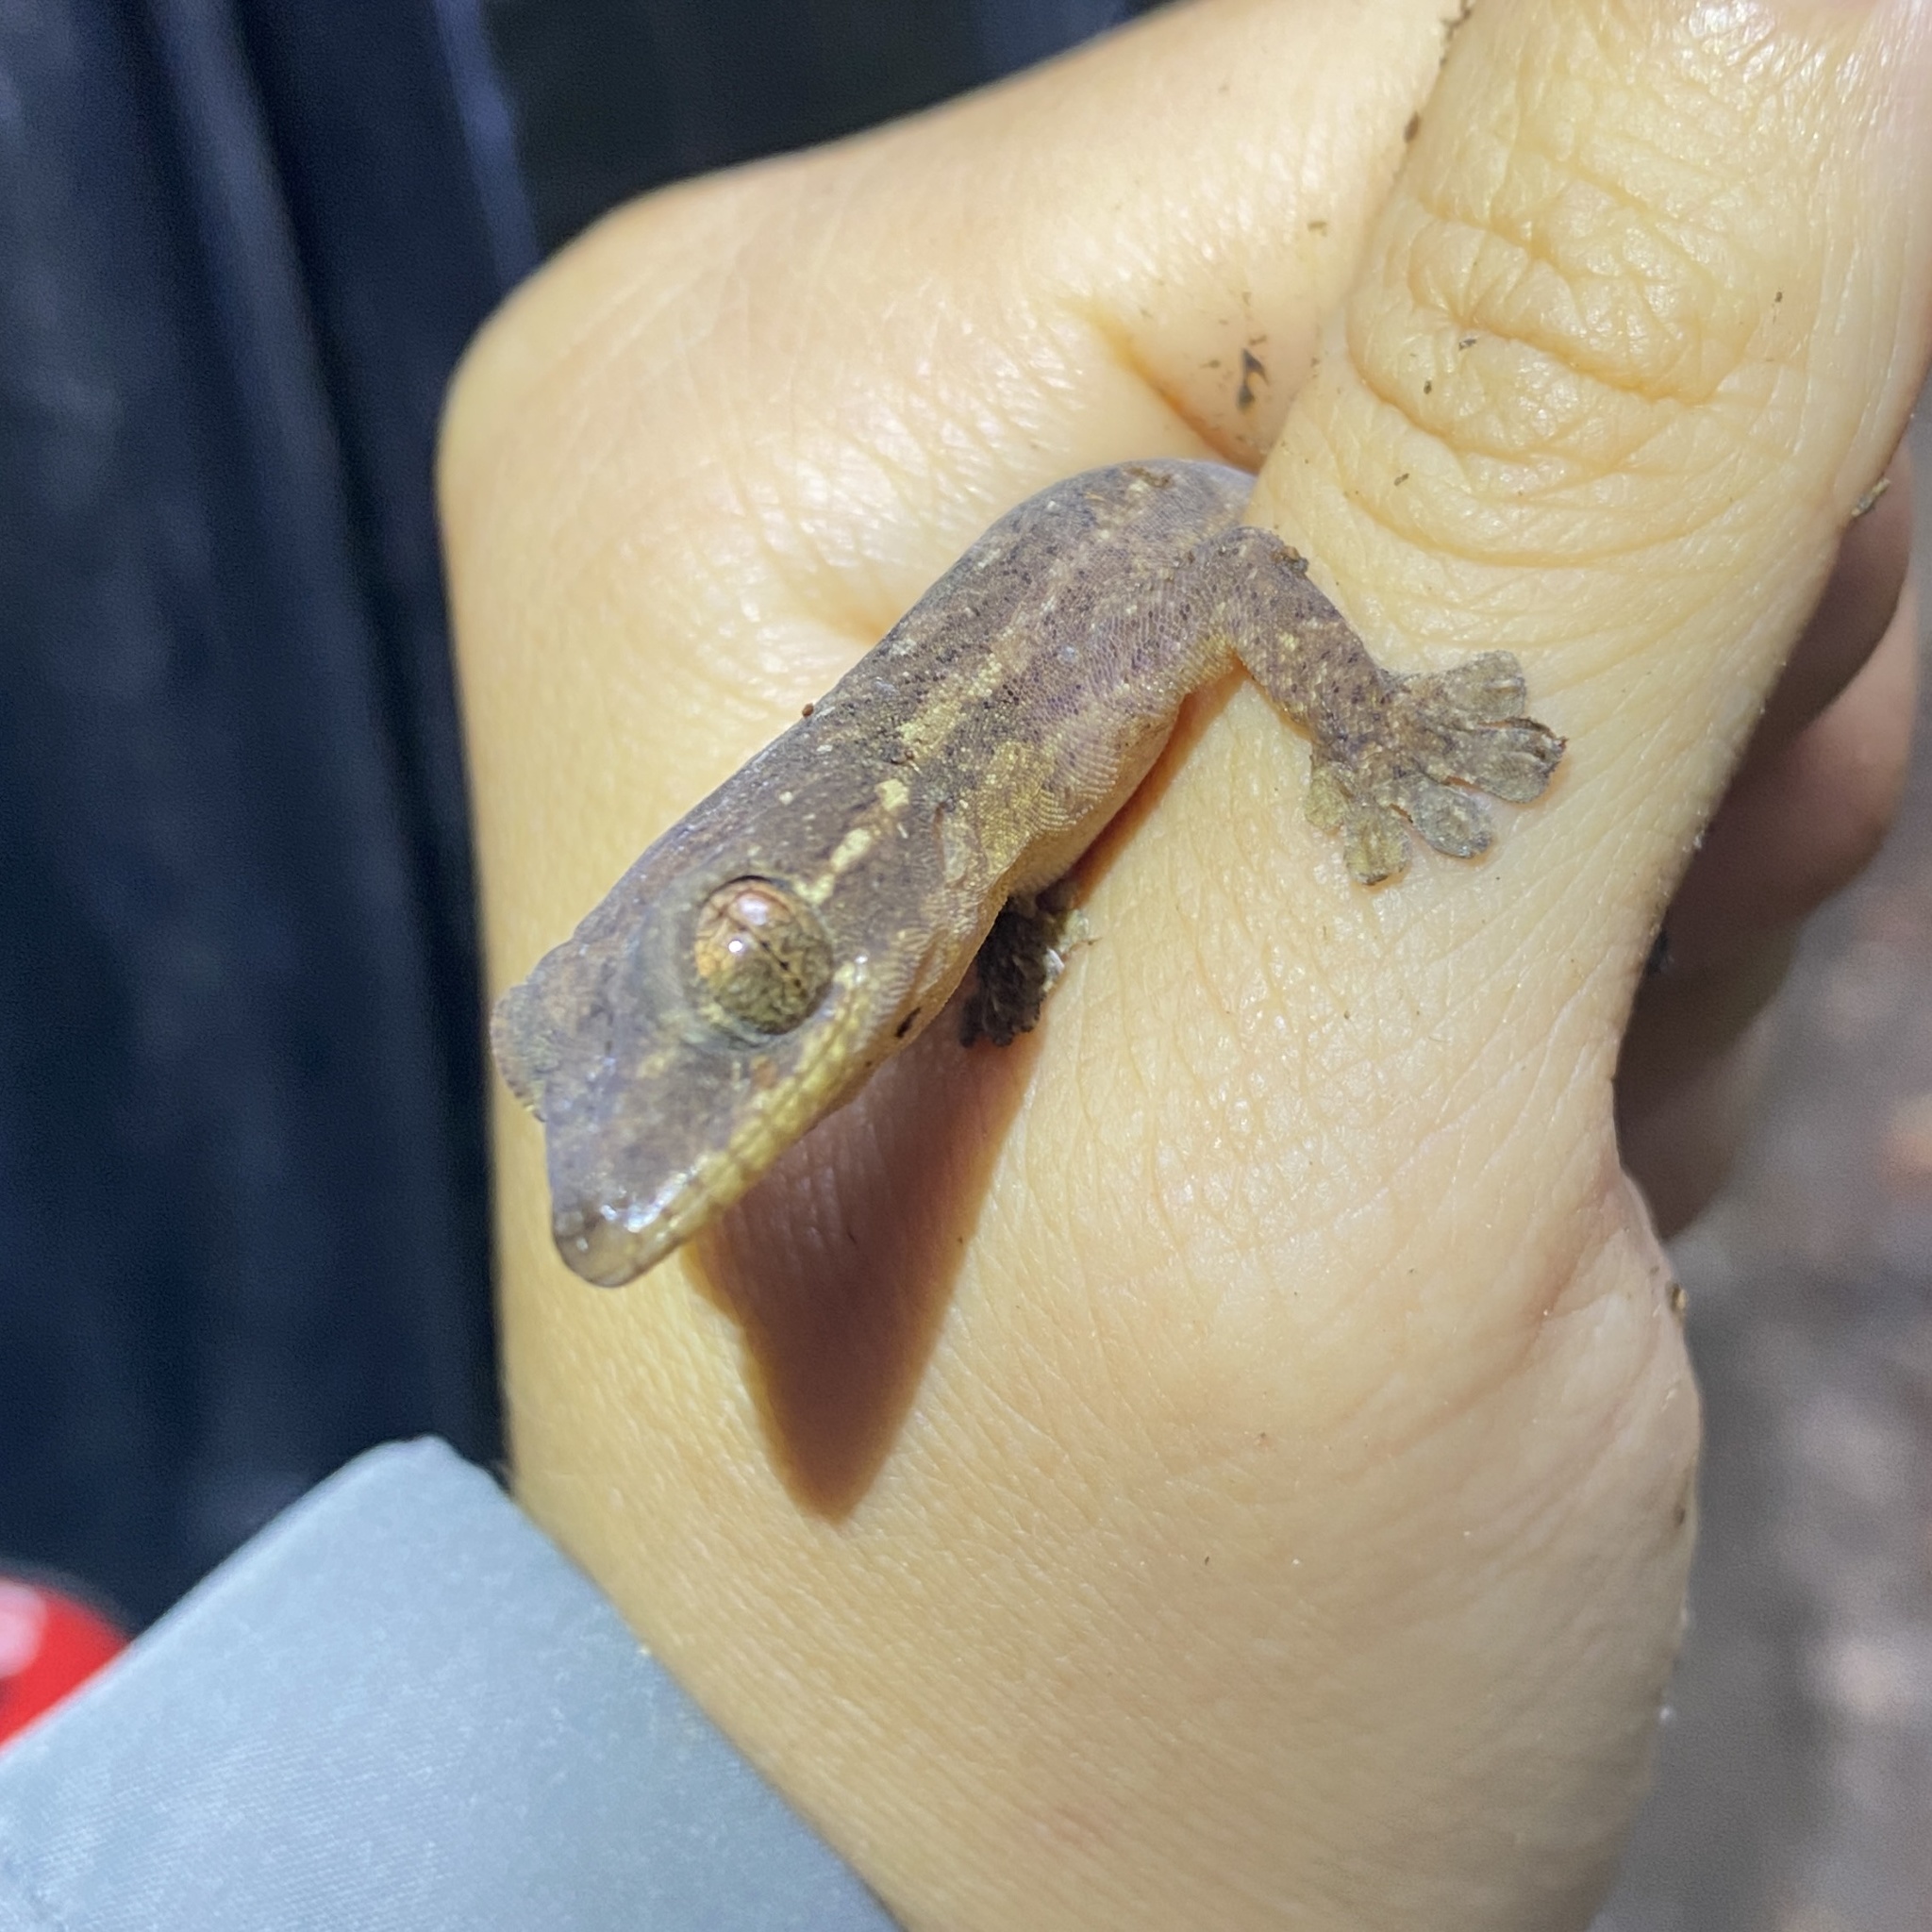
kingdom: Animalia
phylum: Chordata
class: Squamata
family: Phyllodactylidae
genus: Thecadactylus
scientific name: Thecadactylus rapicauda
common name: Turnip-tailed gecko
